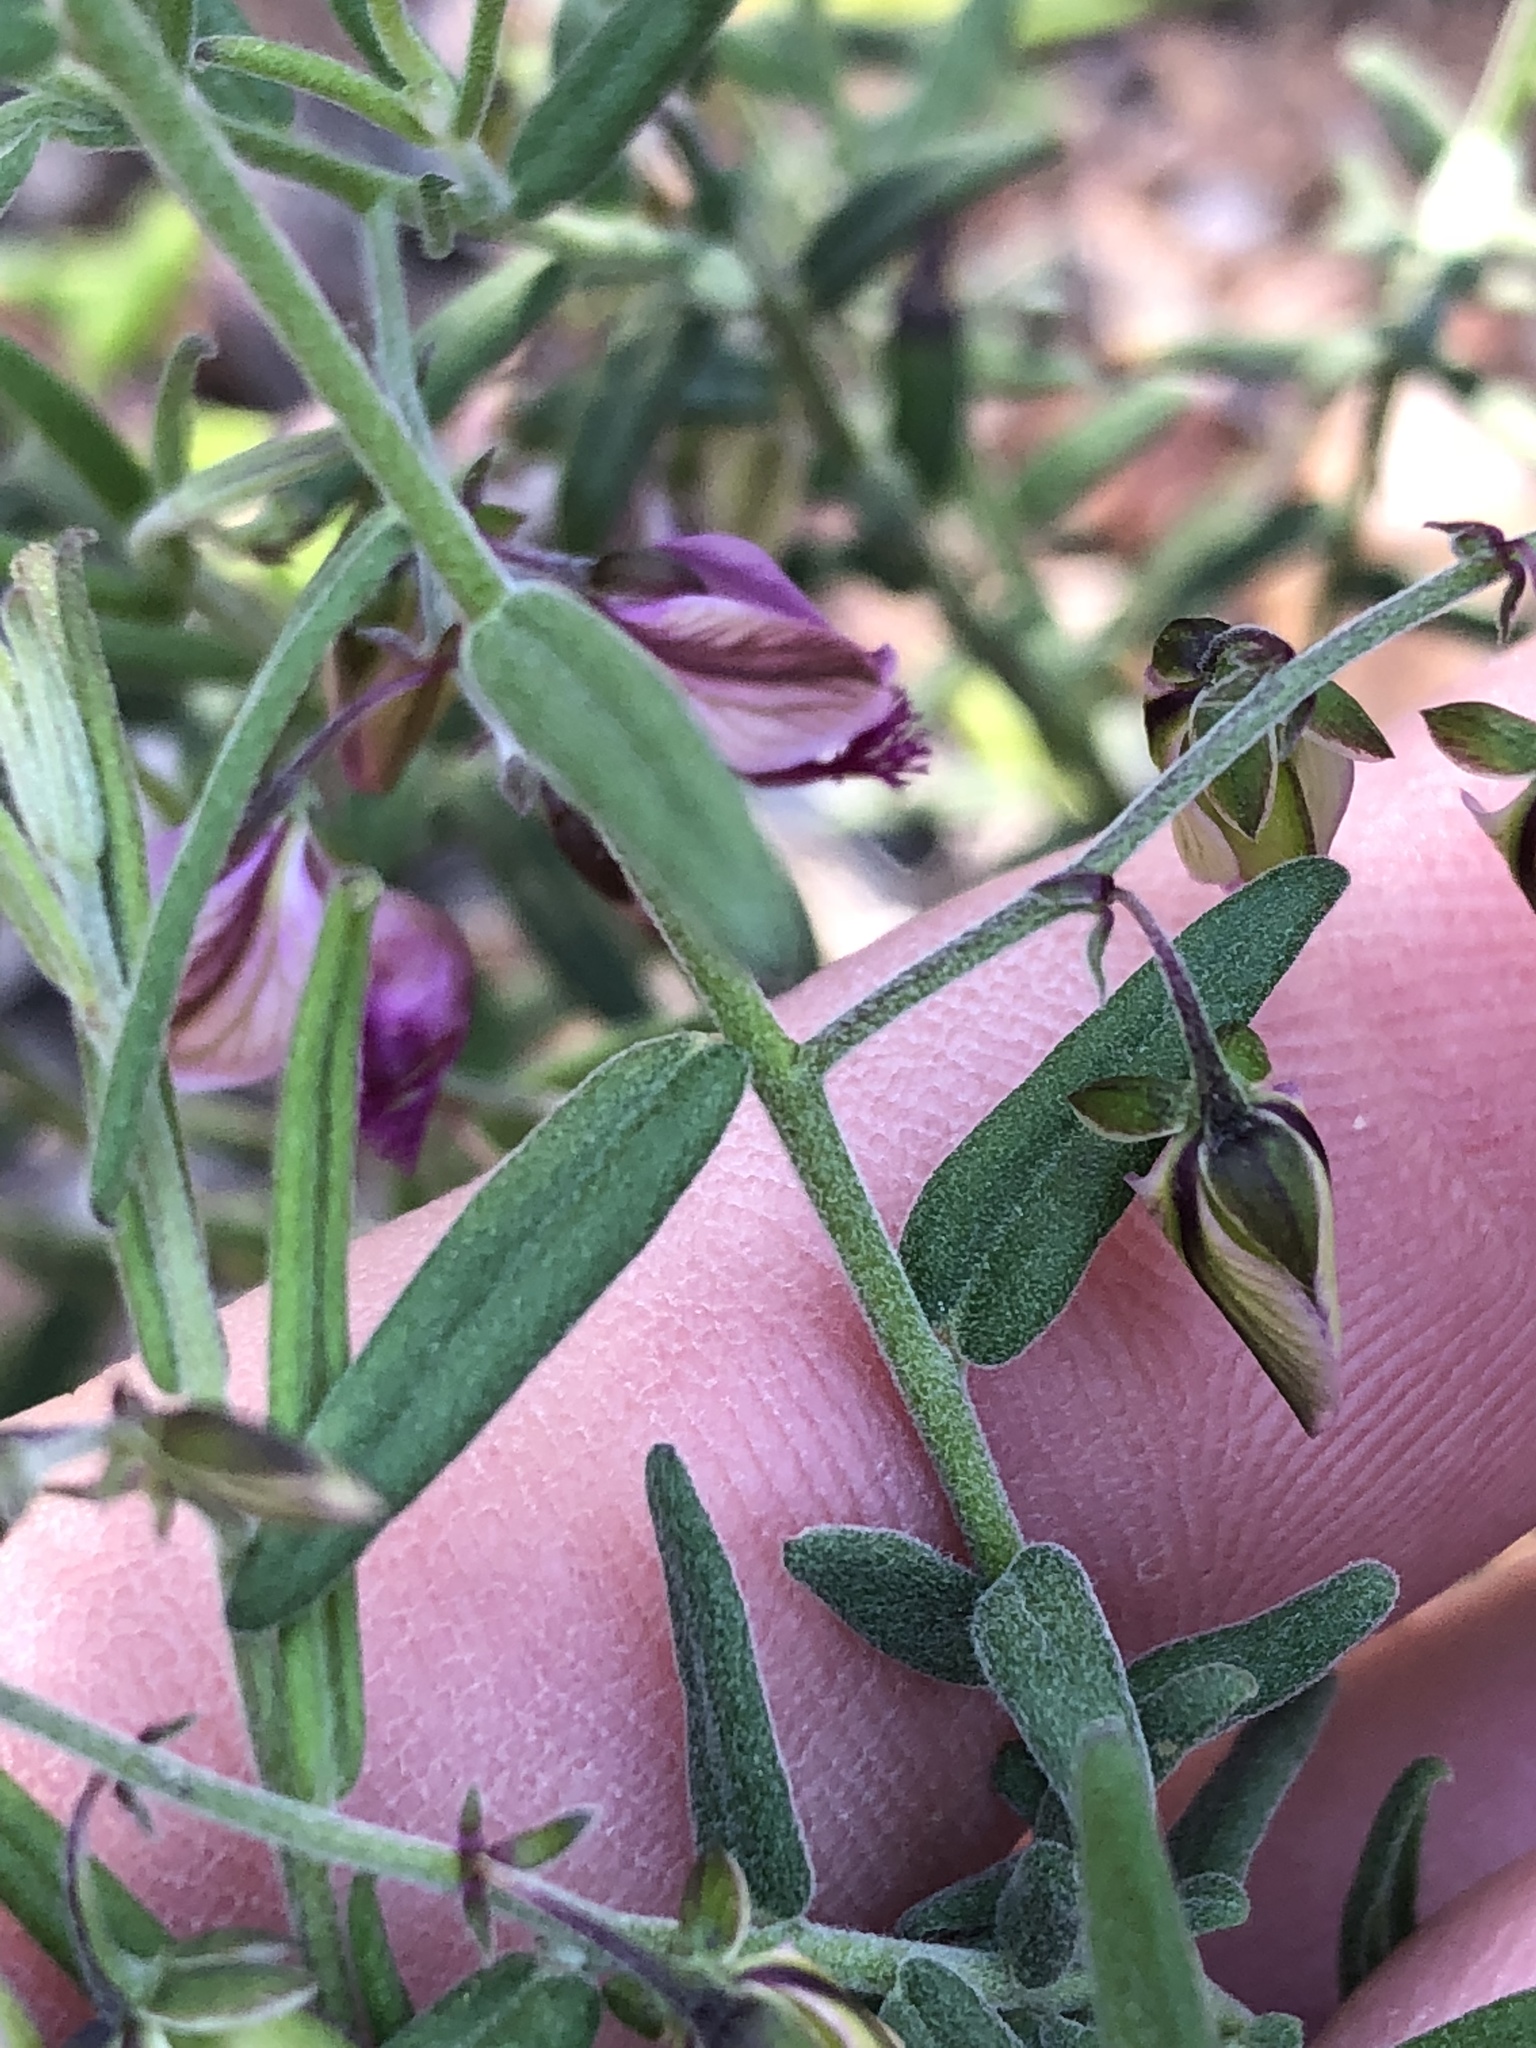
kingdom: Plantae
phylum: Tracheophyta
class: Magnoliopsida
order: Fabales
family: Polygalaceae
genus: Polygala
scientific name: Polygala scabra
